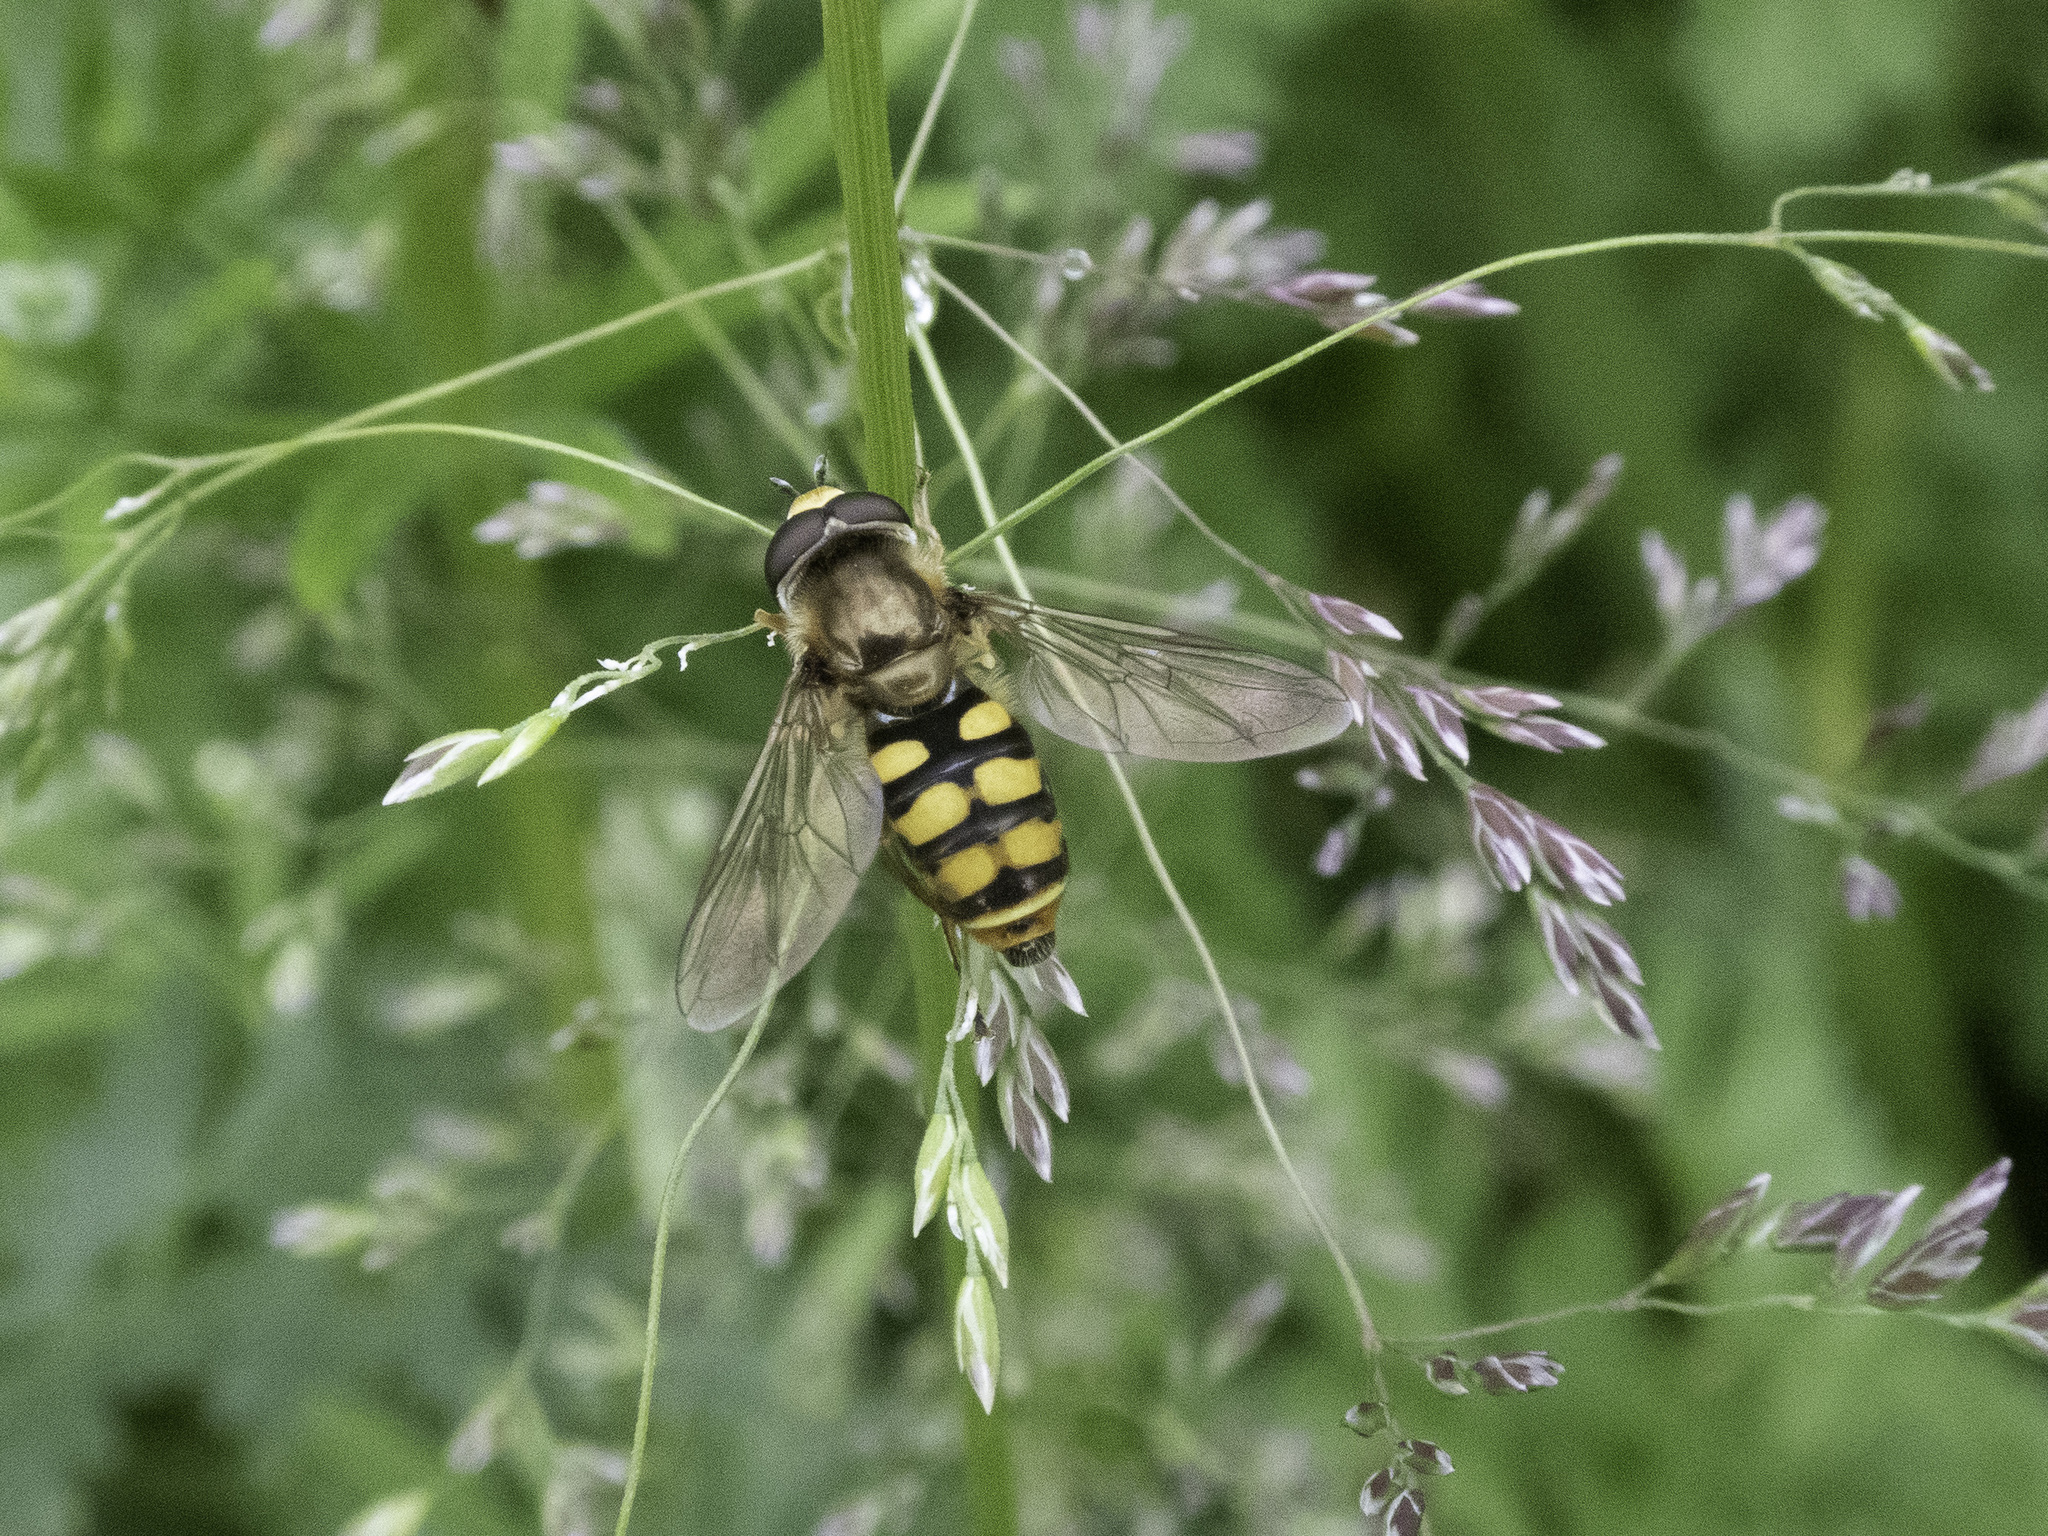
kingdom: Animalia
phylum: Arthropoda
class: Insecta
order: Diptera
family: Syrphidae
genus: Eupeodes
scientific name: Eupeodes corollae
